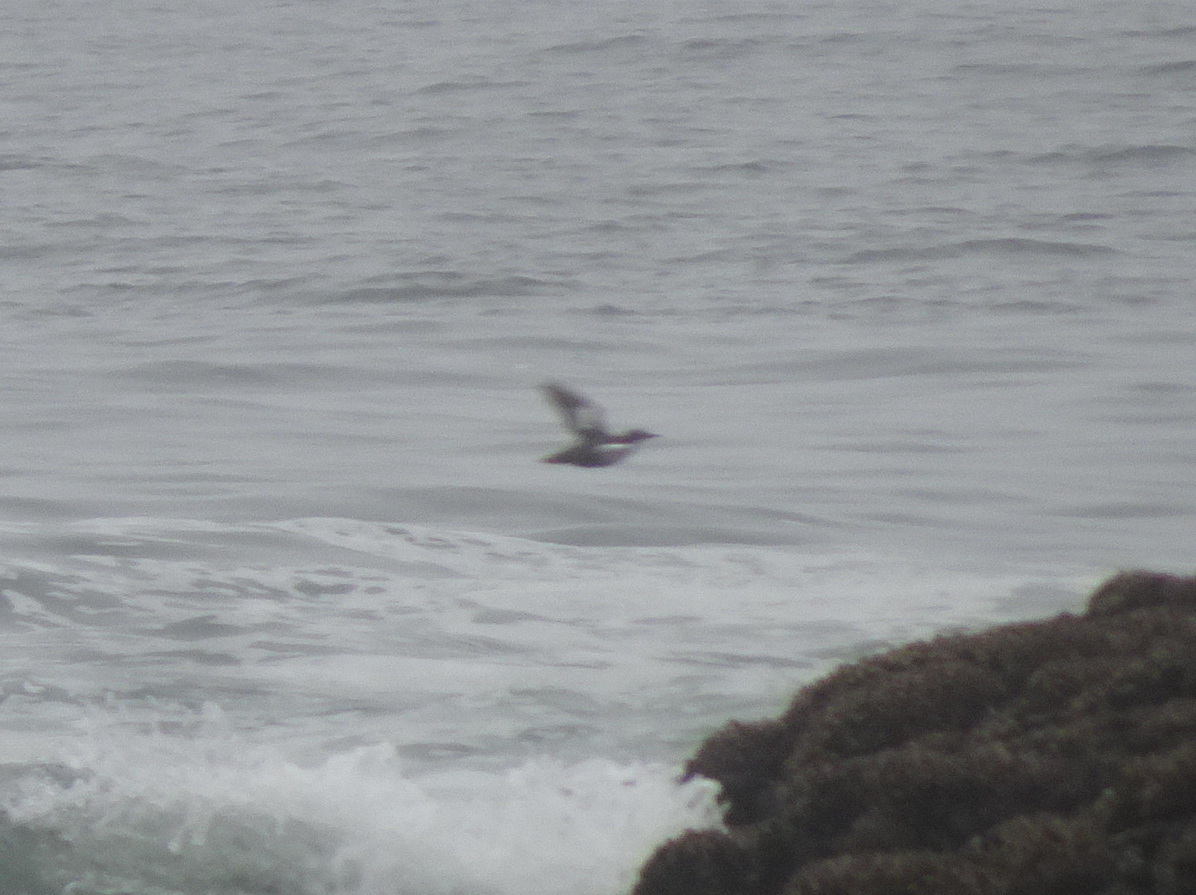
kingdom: Animalia
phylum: Chordata
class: Aves
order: Charadriiformes
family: Alcidae
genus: Cepphus
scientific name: Cepphus columba
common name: Pigeon guillemot
